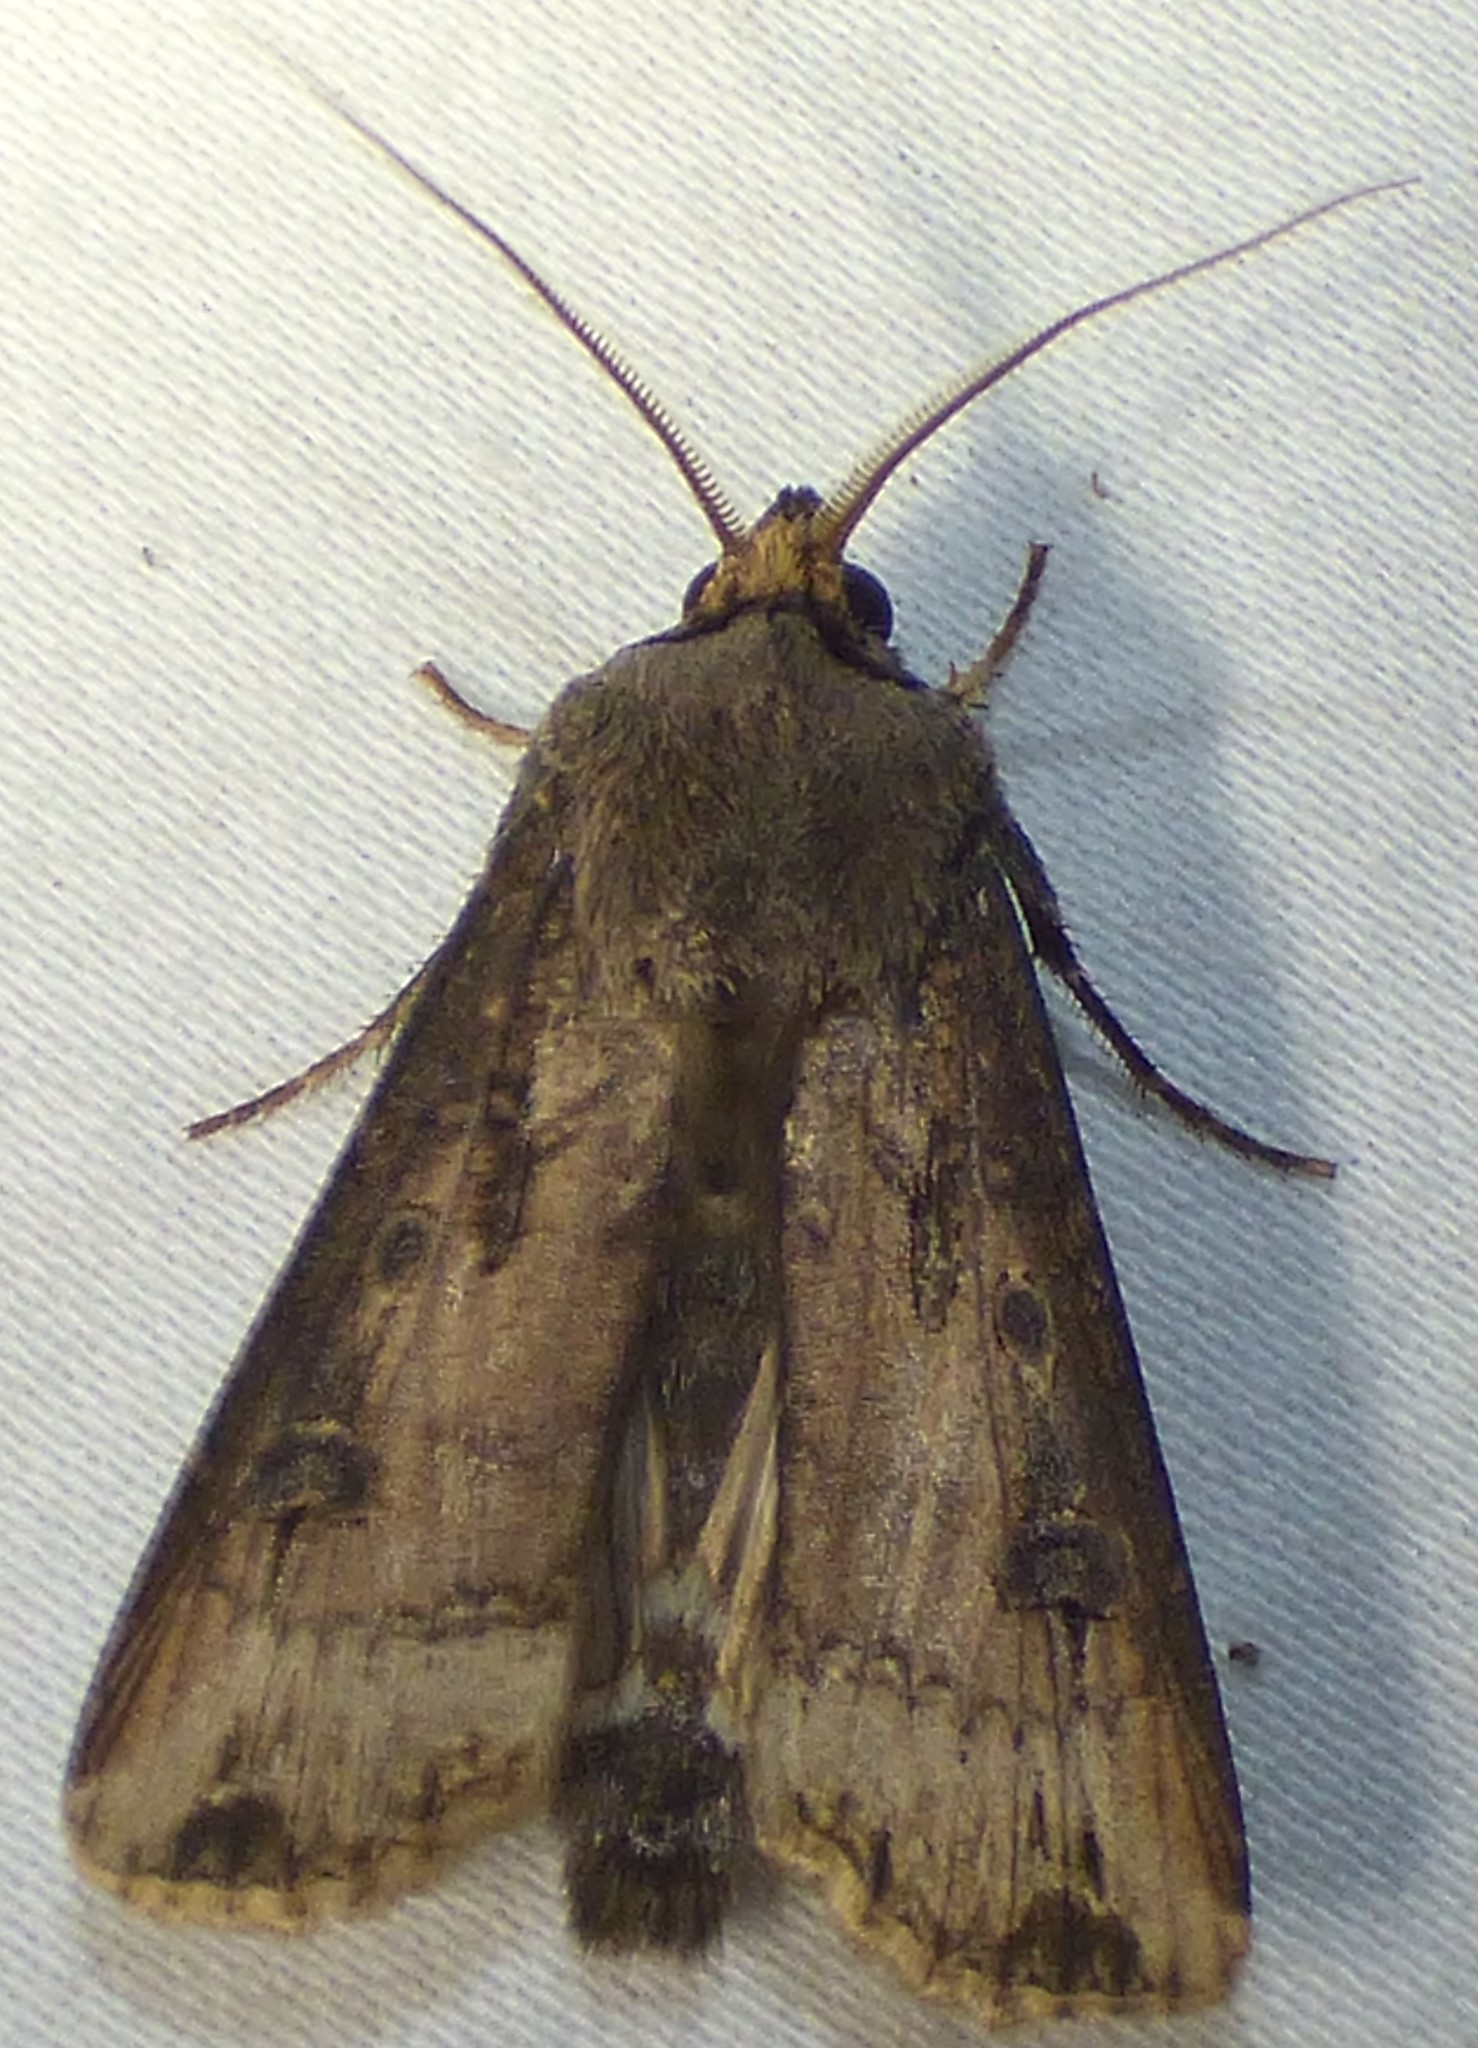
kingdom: Animalia
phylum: Arthropoda
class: Insecta
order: Lepidoptera
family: Noctuidae
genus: Agrotis
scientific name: Agrotis ipsilon
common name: Dark sword-grass
